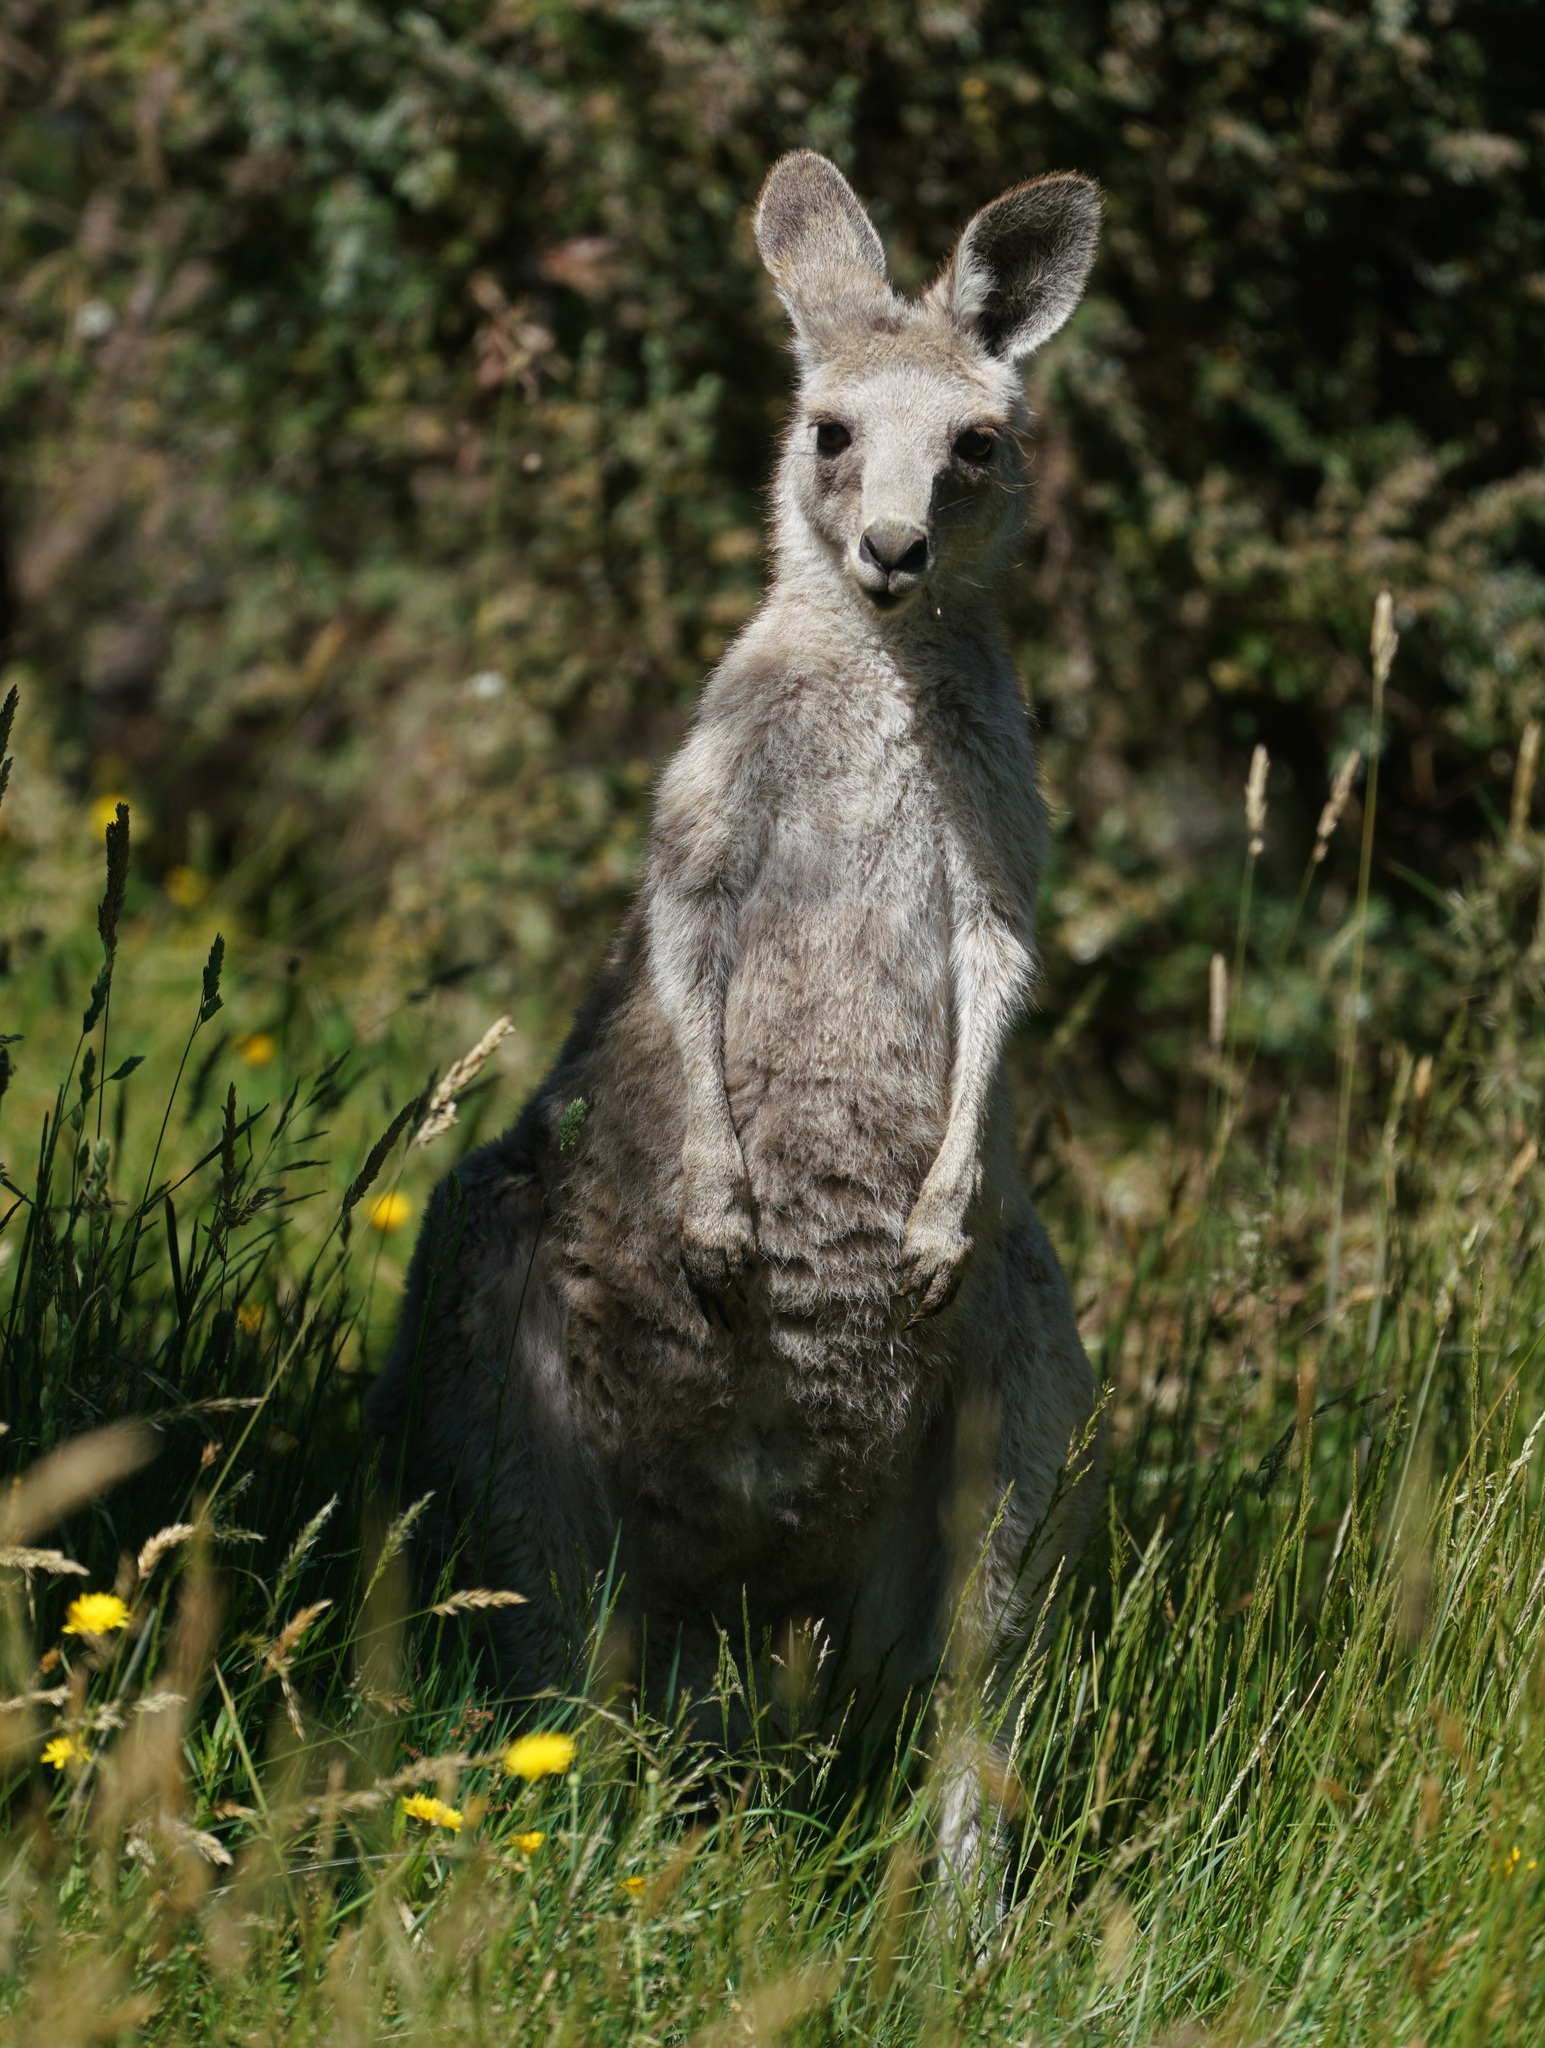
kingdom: Animalia
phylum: Chordata
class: Mammalia
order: Diprotodontia
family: Macropodidae
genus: Macropus
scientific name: Macropus giganteus
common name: Eastern grey kangaroo
